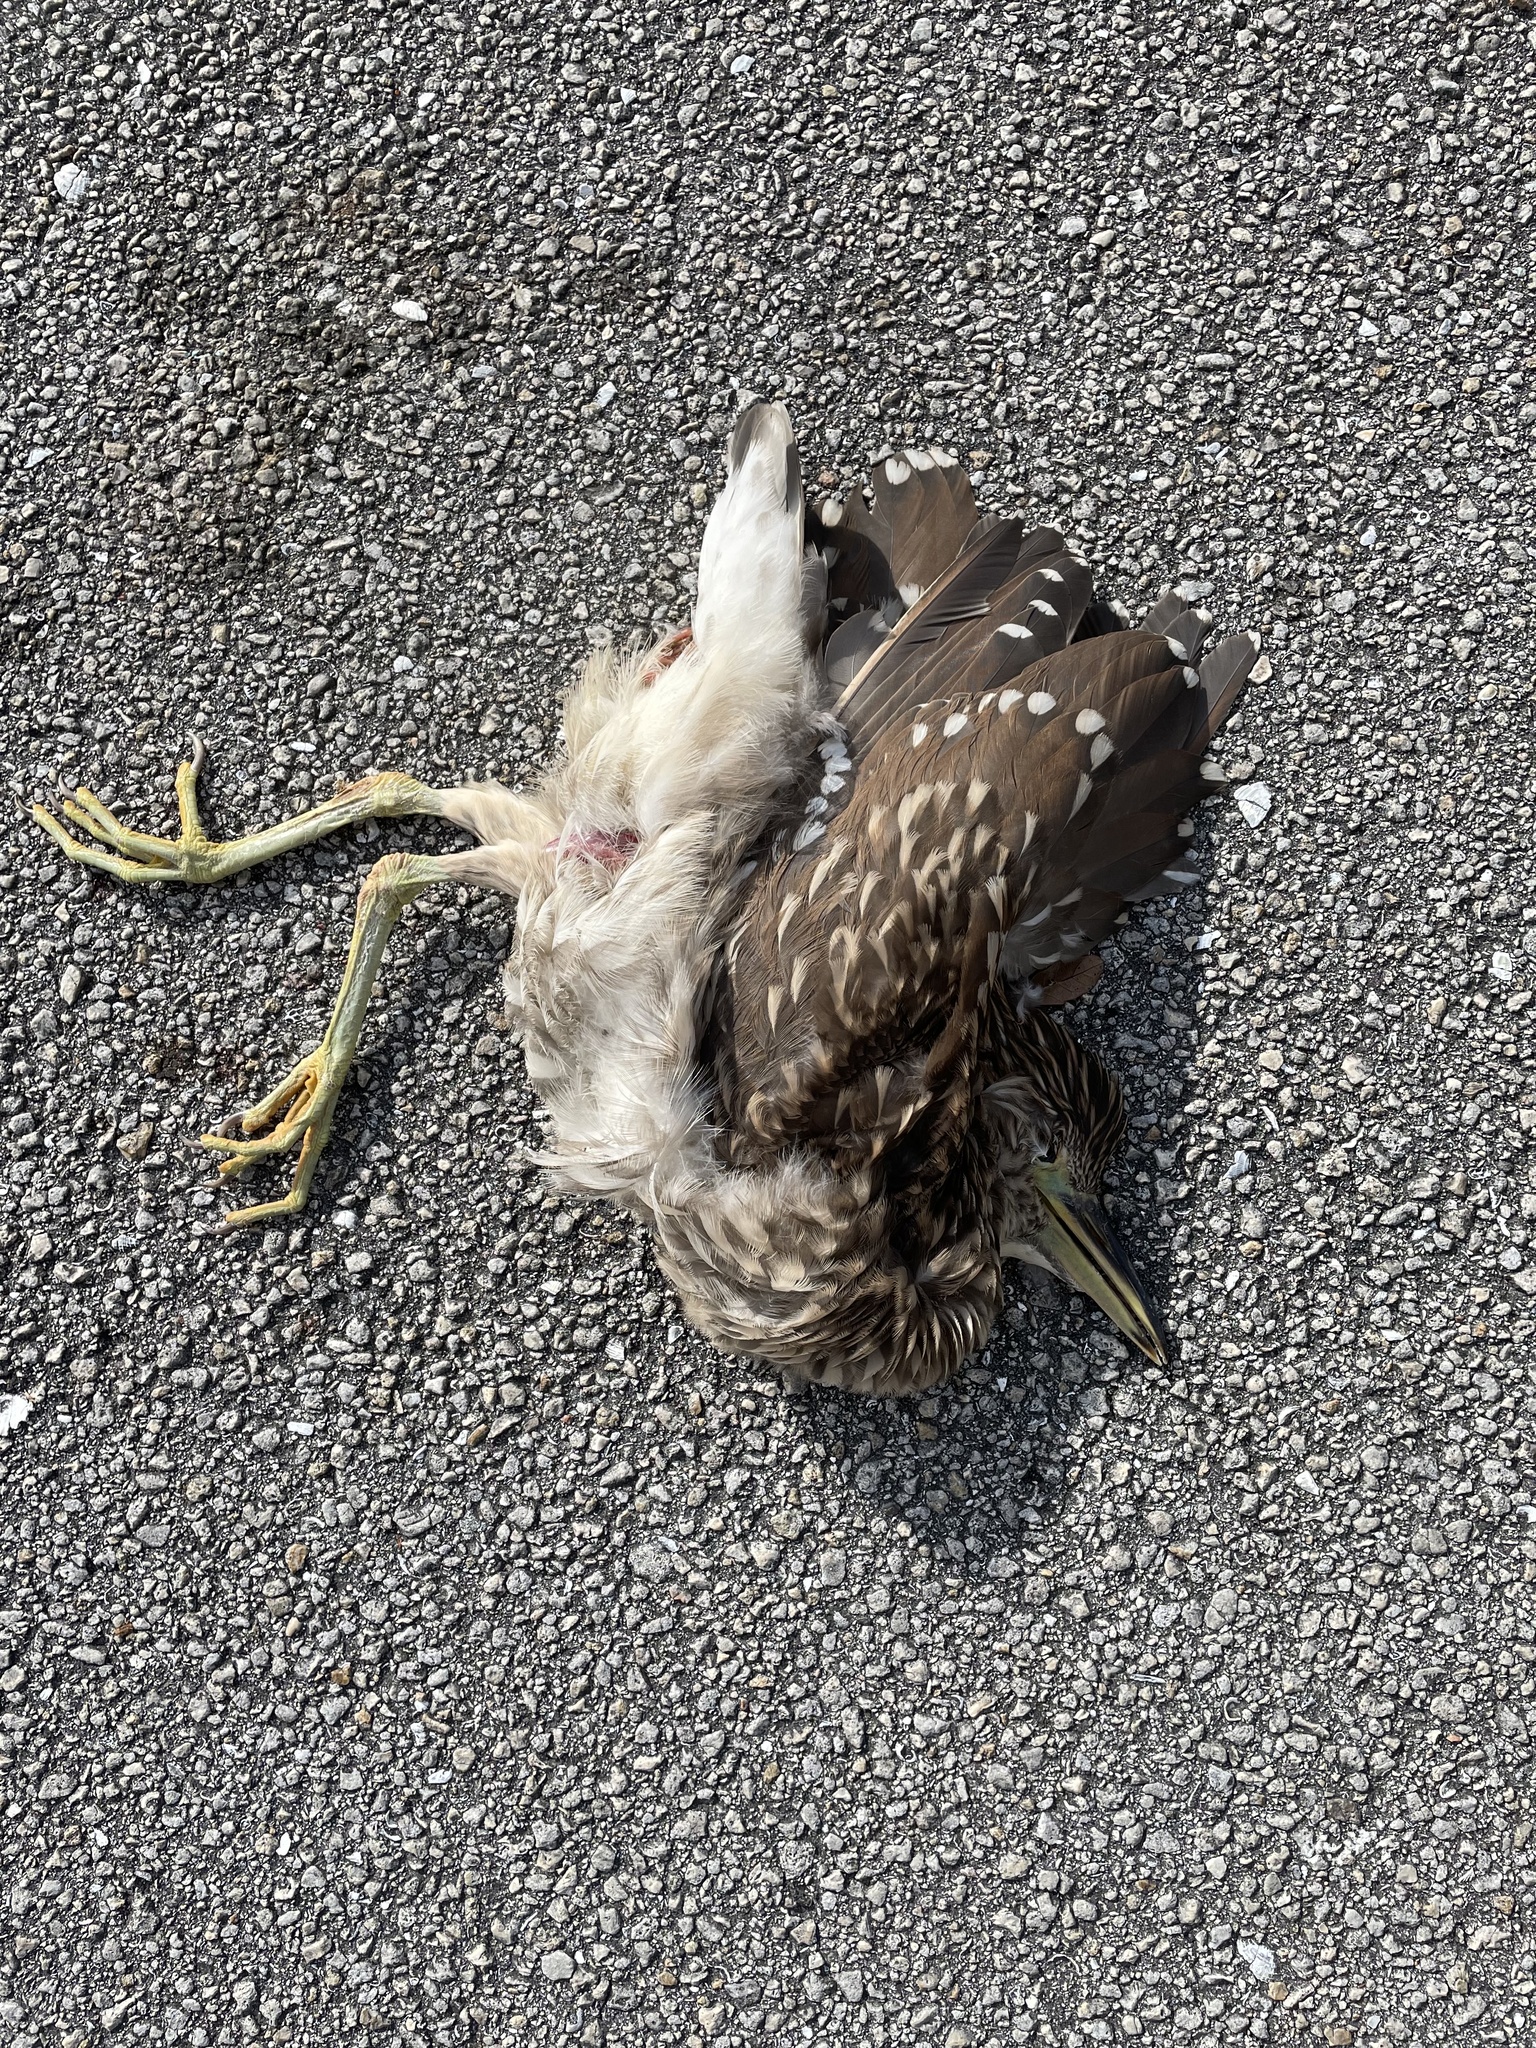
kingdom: Animalia
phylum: Chordata
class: Aves
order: Pelecaniformes
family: Ardeidae
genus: Nycticorax
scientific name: Nycticorax nycticorax
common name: Black-crowned night heron
